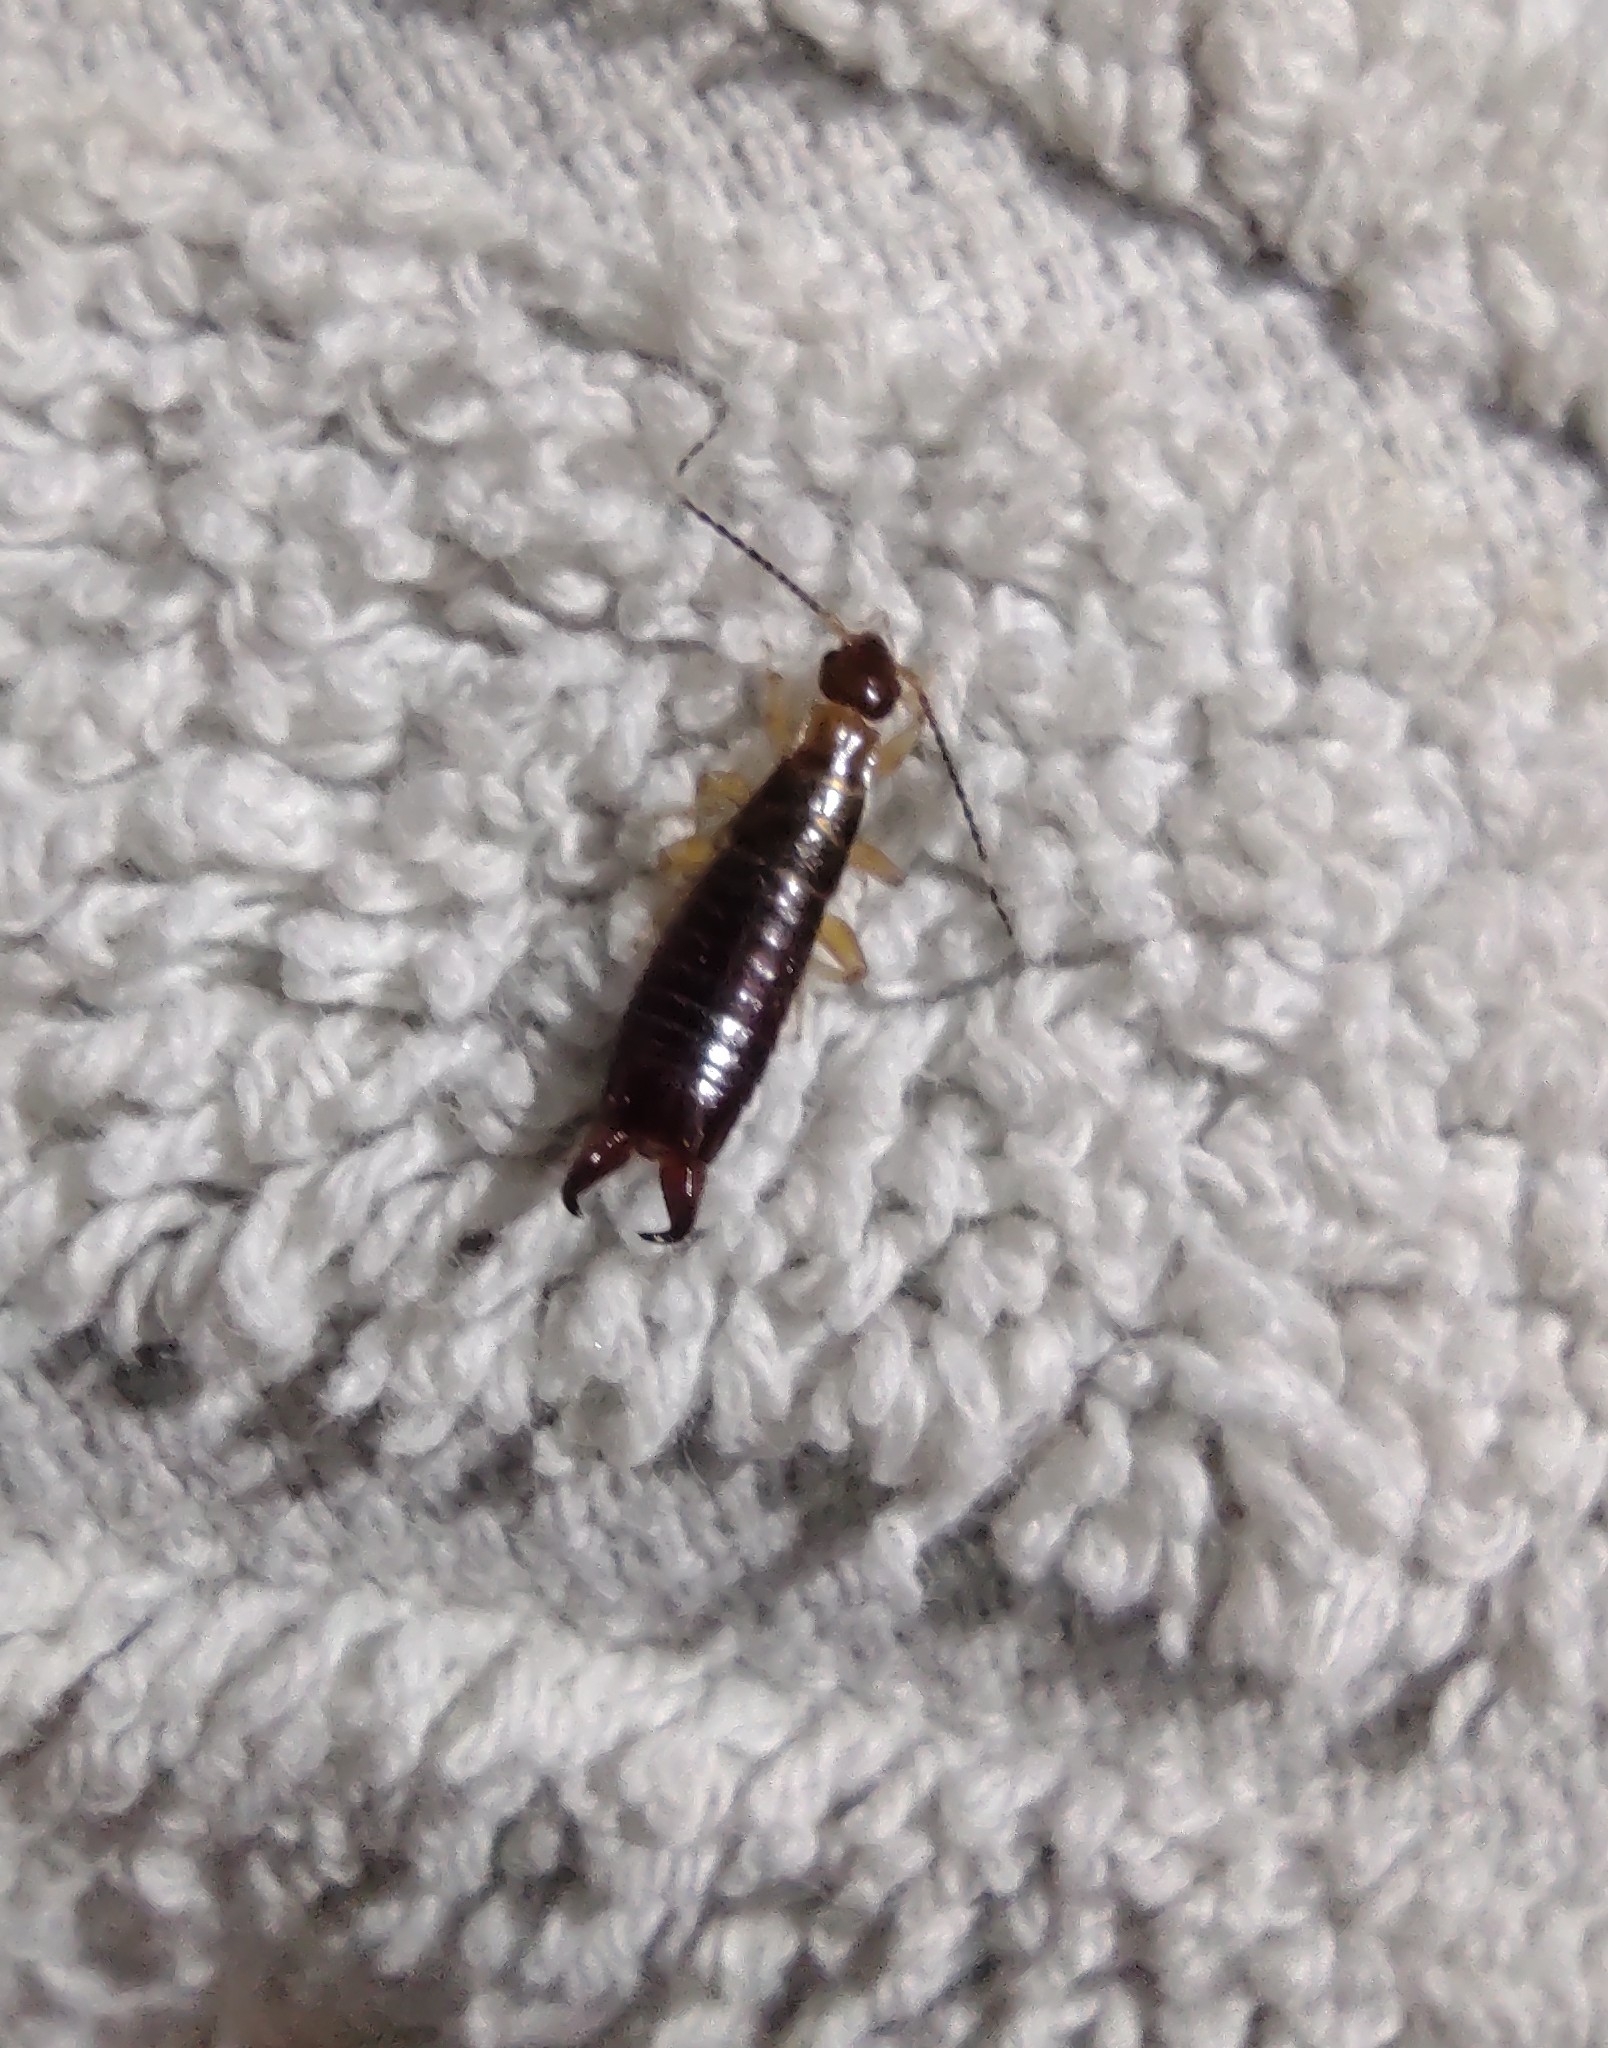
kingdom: Animalia
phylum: Arthropoda
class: Insecta
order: Dermaptera
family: Anisolabididae
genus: Euborellia
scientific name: Euborellia annulipes
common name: Ringlegged earwig
